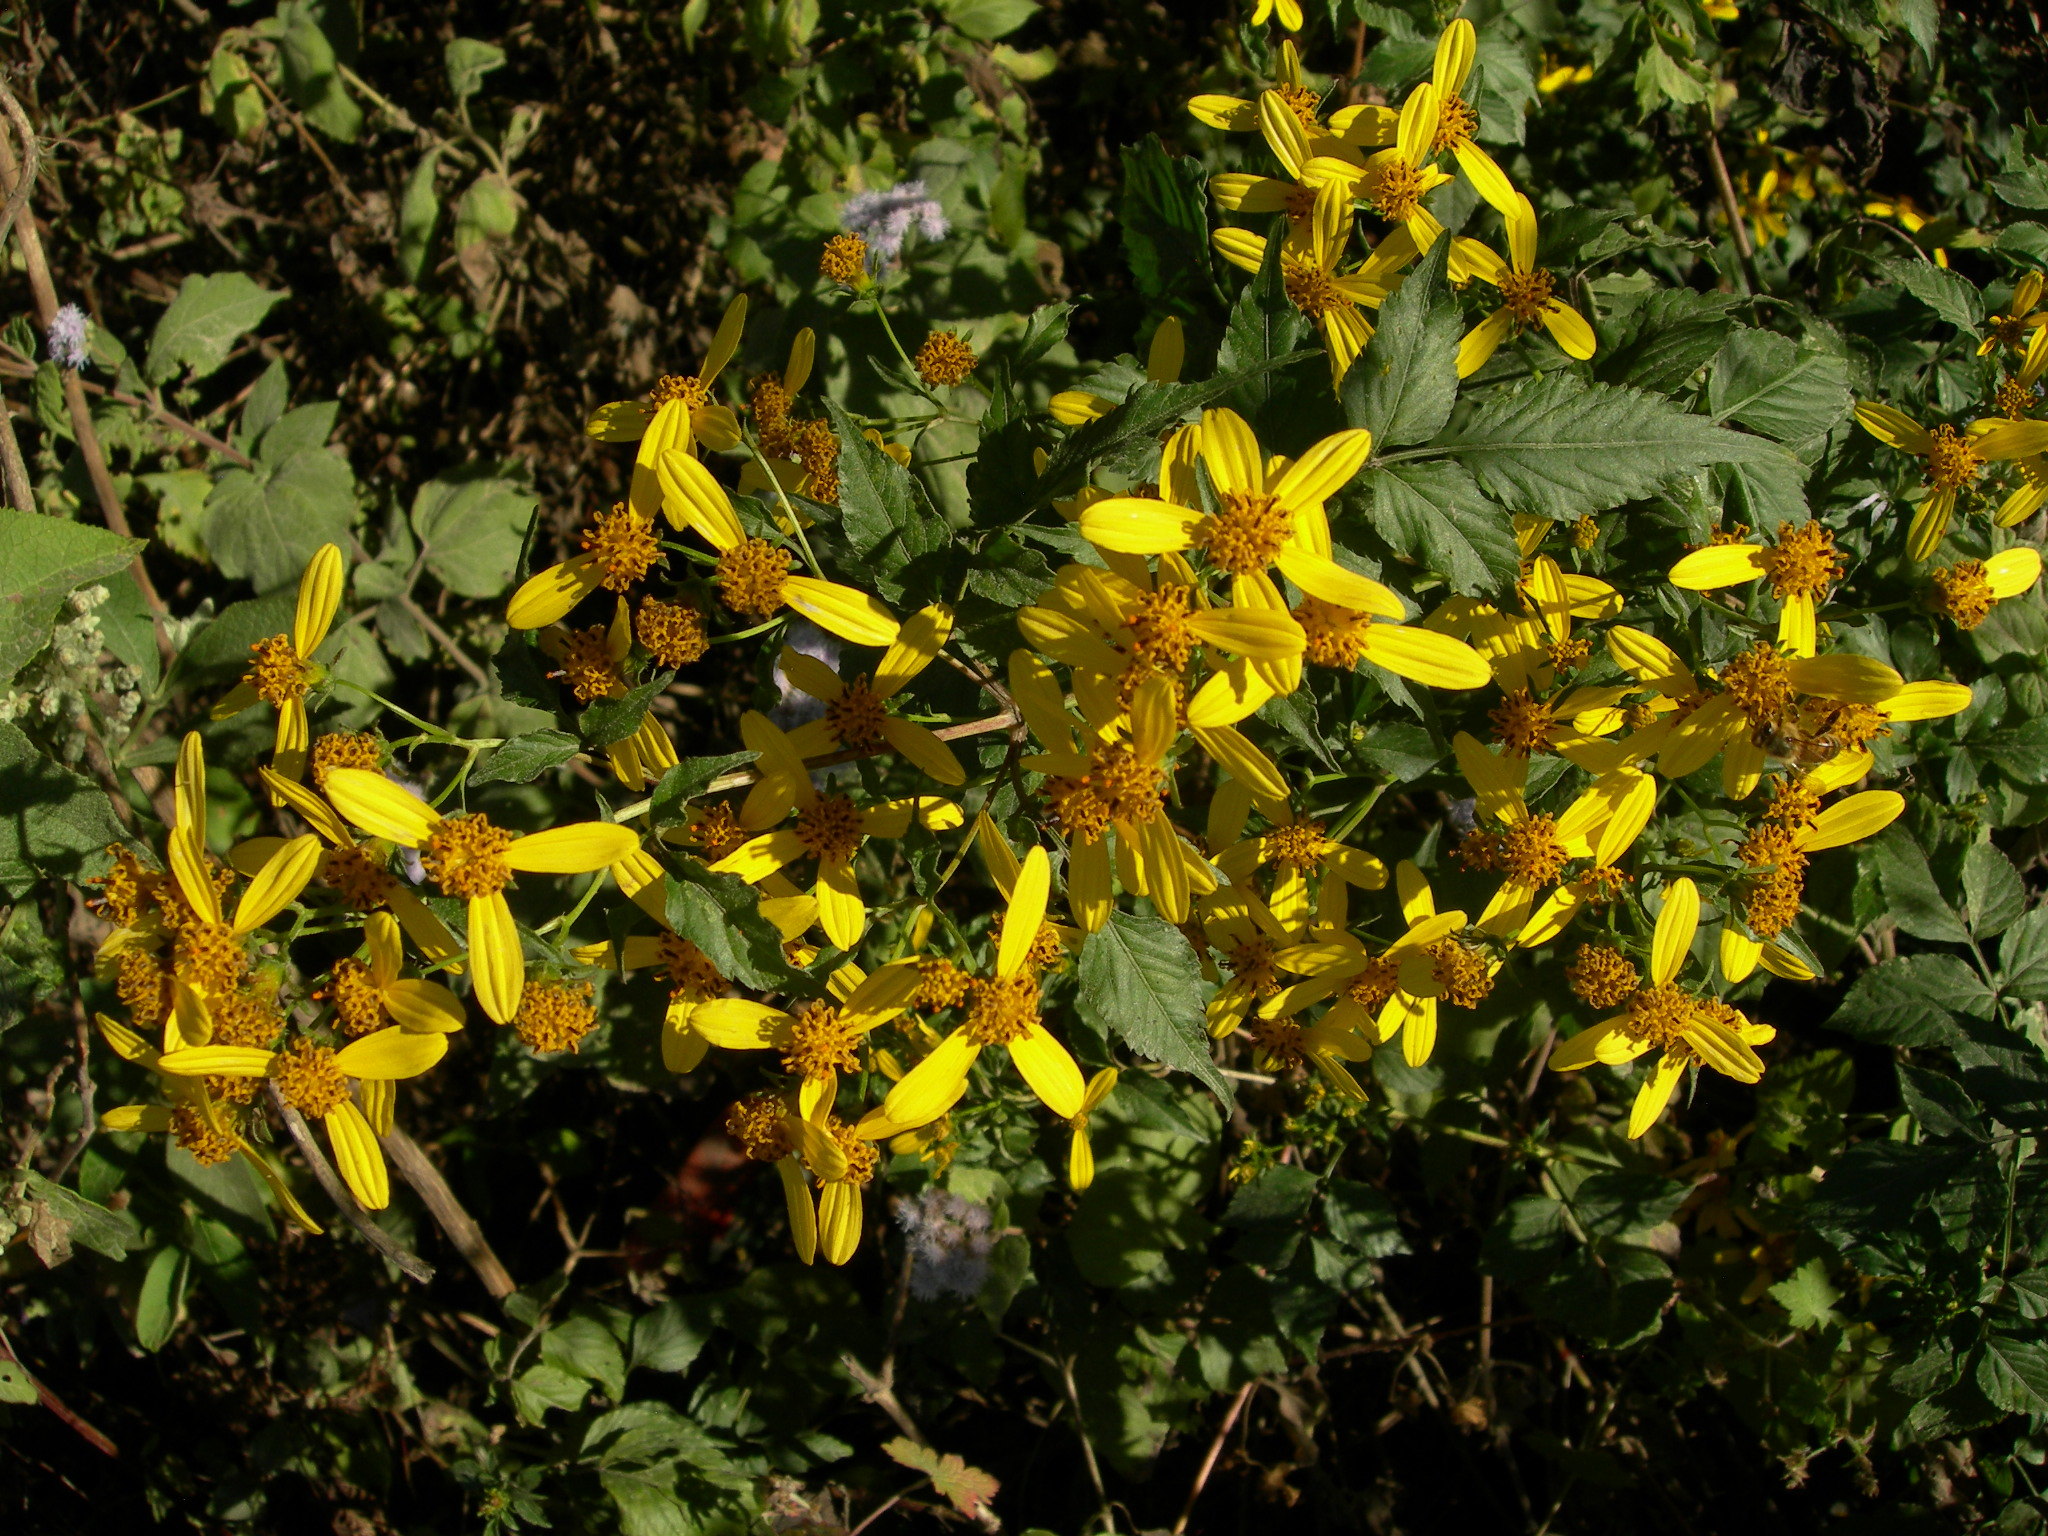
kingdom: Plantae
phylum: Tracheophyta
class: Magnoliopsida
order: Asterales
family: Asteraceae
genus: Bidens
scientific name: Bidens reptans
